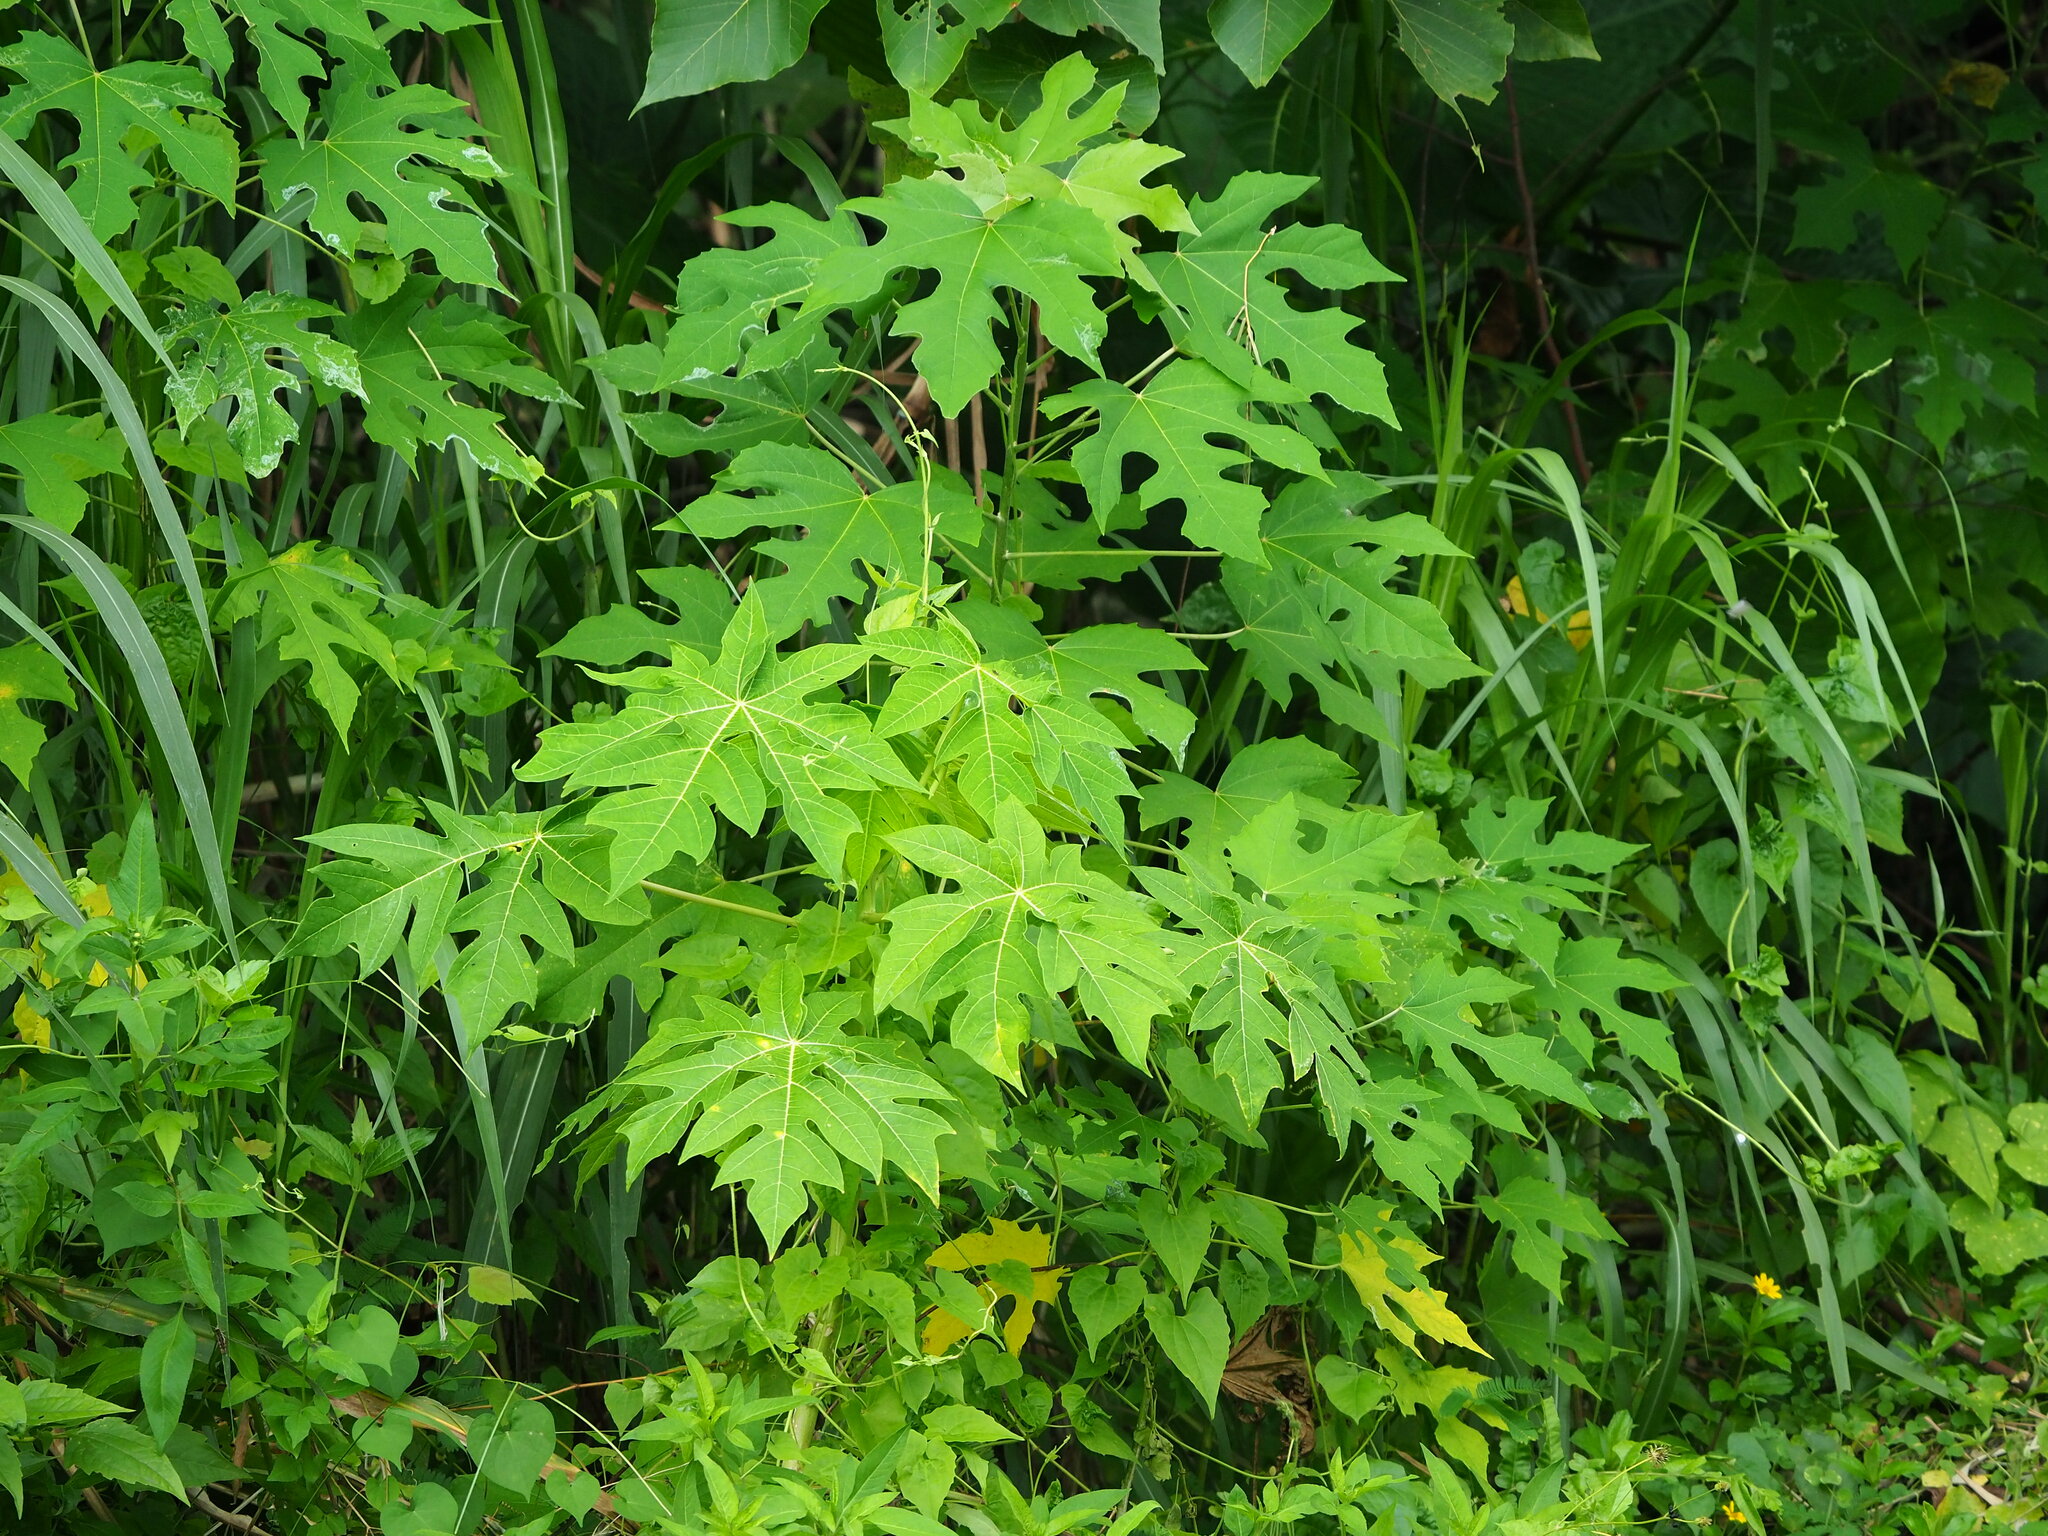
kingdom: Plantae
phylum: Tracheophyta
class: Magnoliopsida
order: Malpighiales
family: Euphorbiaceae
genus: Melanolepis
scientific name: Melanolepis multiglandulosa
